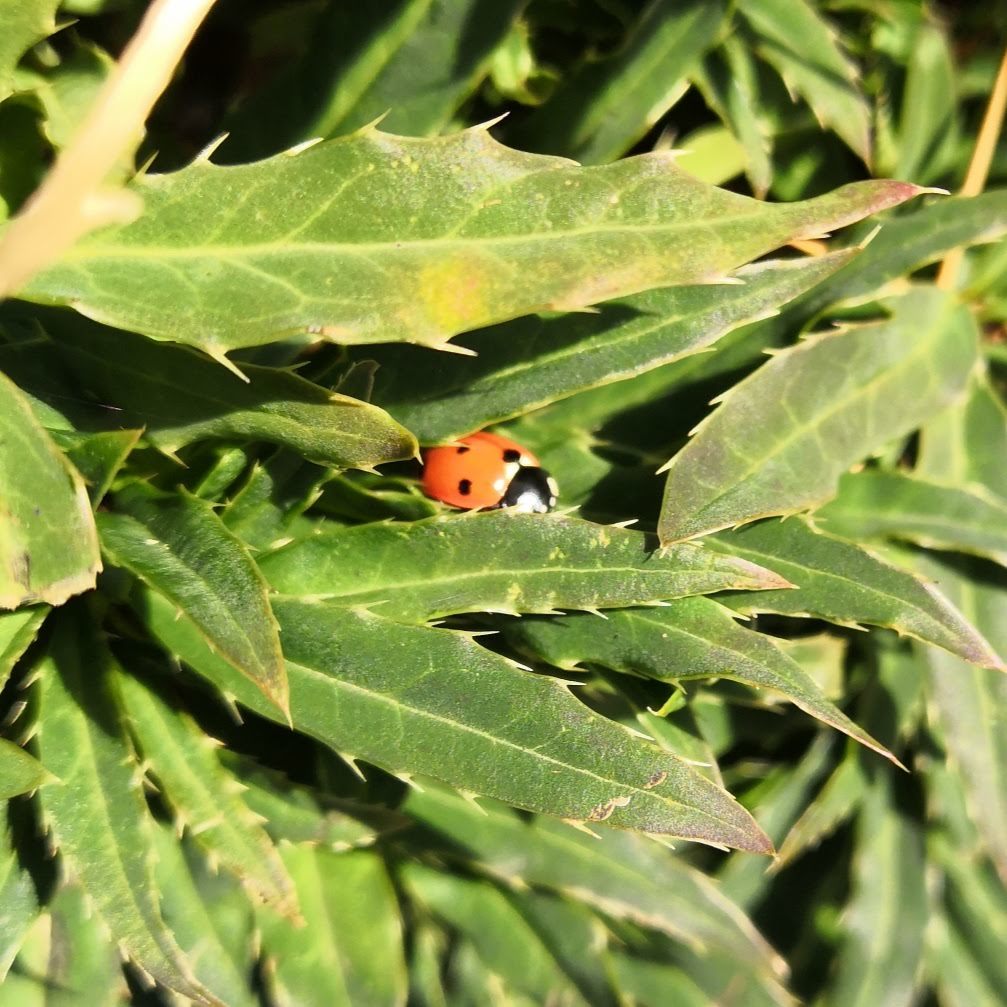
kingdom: Animalia
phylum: Arthropoda
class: Insecta
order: Coleoptera
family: Coccinellidae
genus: Coccinella
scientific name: Coccinella septempunctata
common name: Sevenspotted lady beetle
